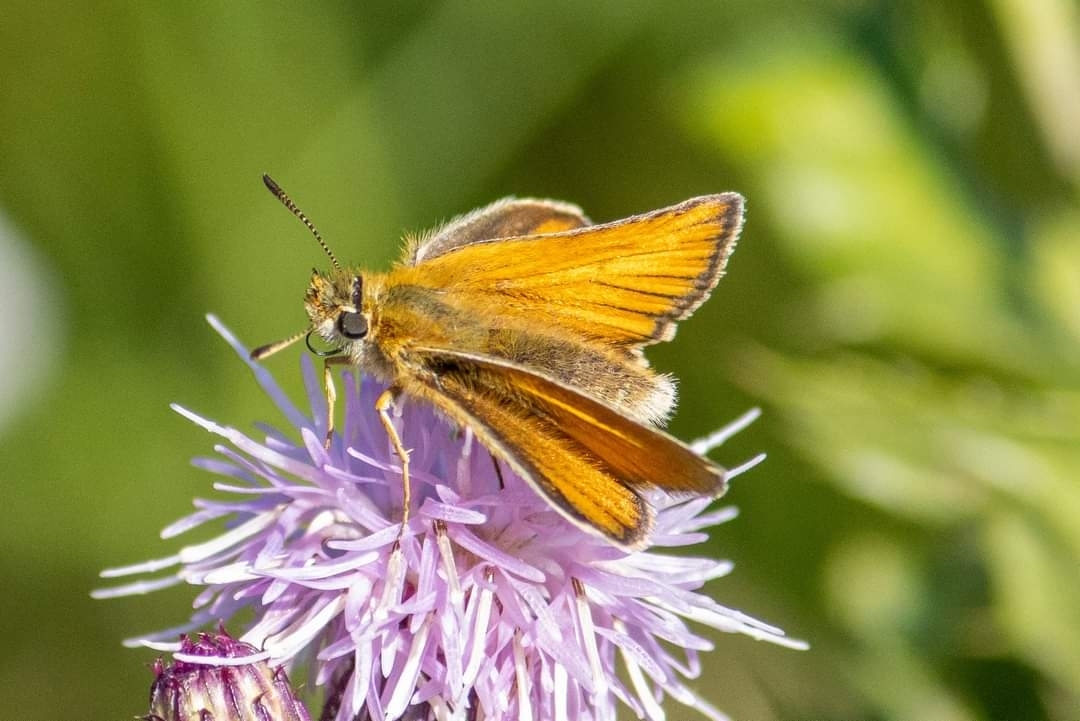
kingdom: Animalia
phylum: Arthropoda
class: Insecta
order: Lepidoptera
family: Hesperiidae
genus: Thymelicus
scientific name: Thymelicus lineola
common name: Essex skipper
